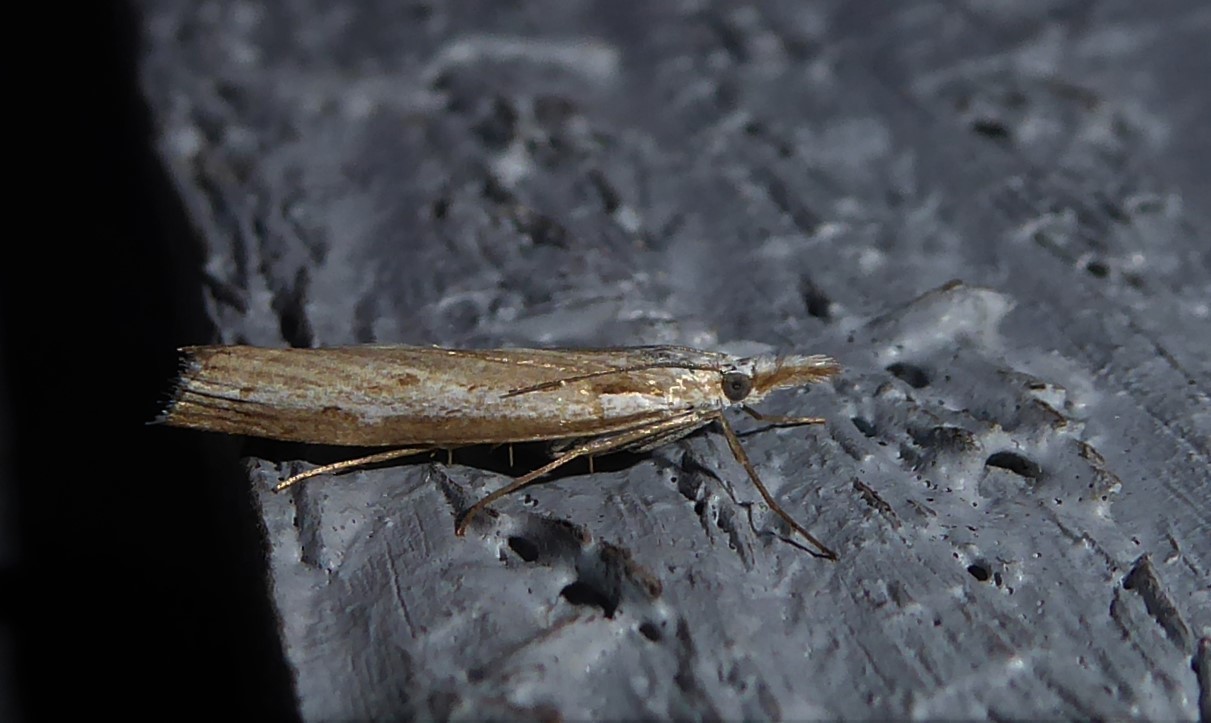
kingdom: Animalia
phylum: Arthropoda
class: Insecta
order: Lepidoptera
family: Crambidae
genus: Orocrambus
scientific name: Orocrambus vittellus
